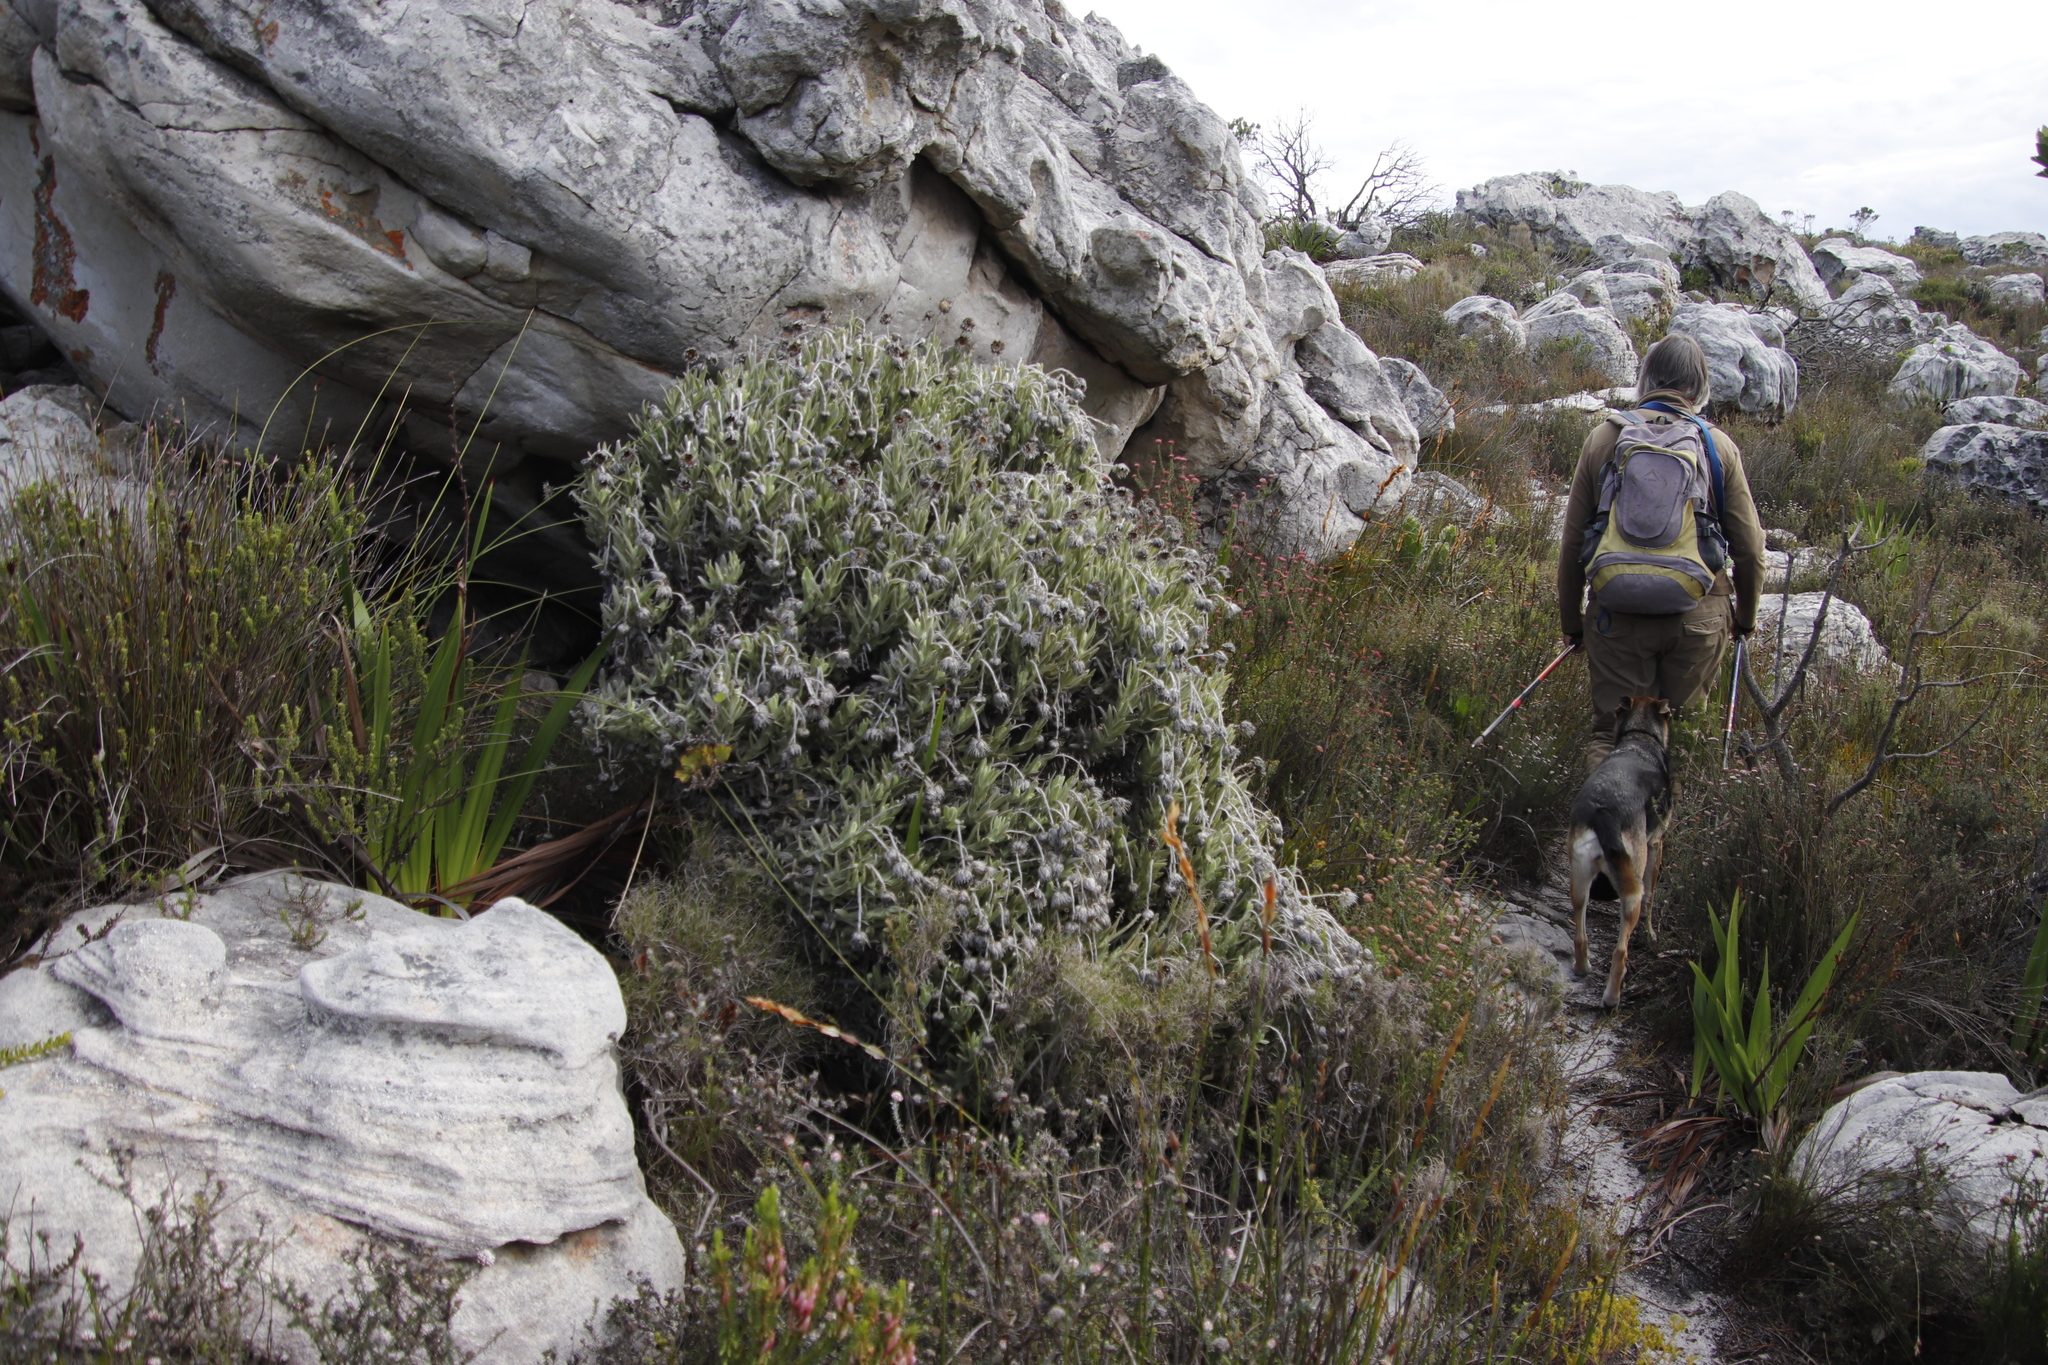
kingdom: Plantae
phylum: Tracheophyta
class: Magnoliopsida
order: Asterales
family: Asteraceae
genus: Syncarpha
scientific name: Syncarpha vestita
